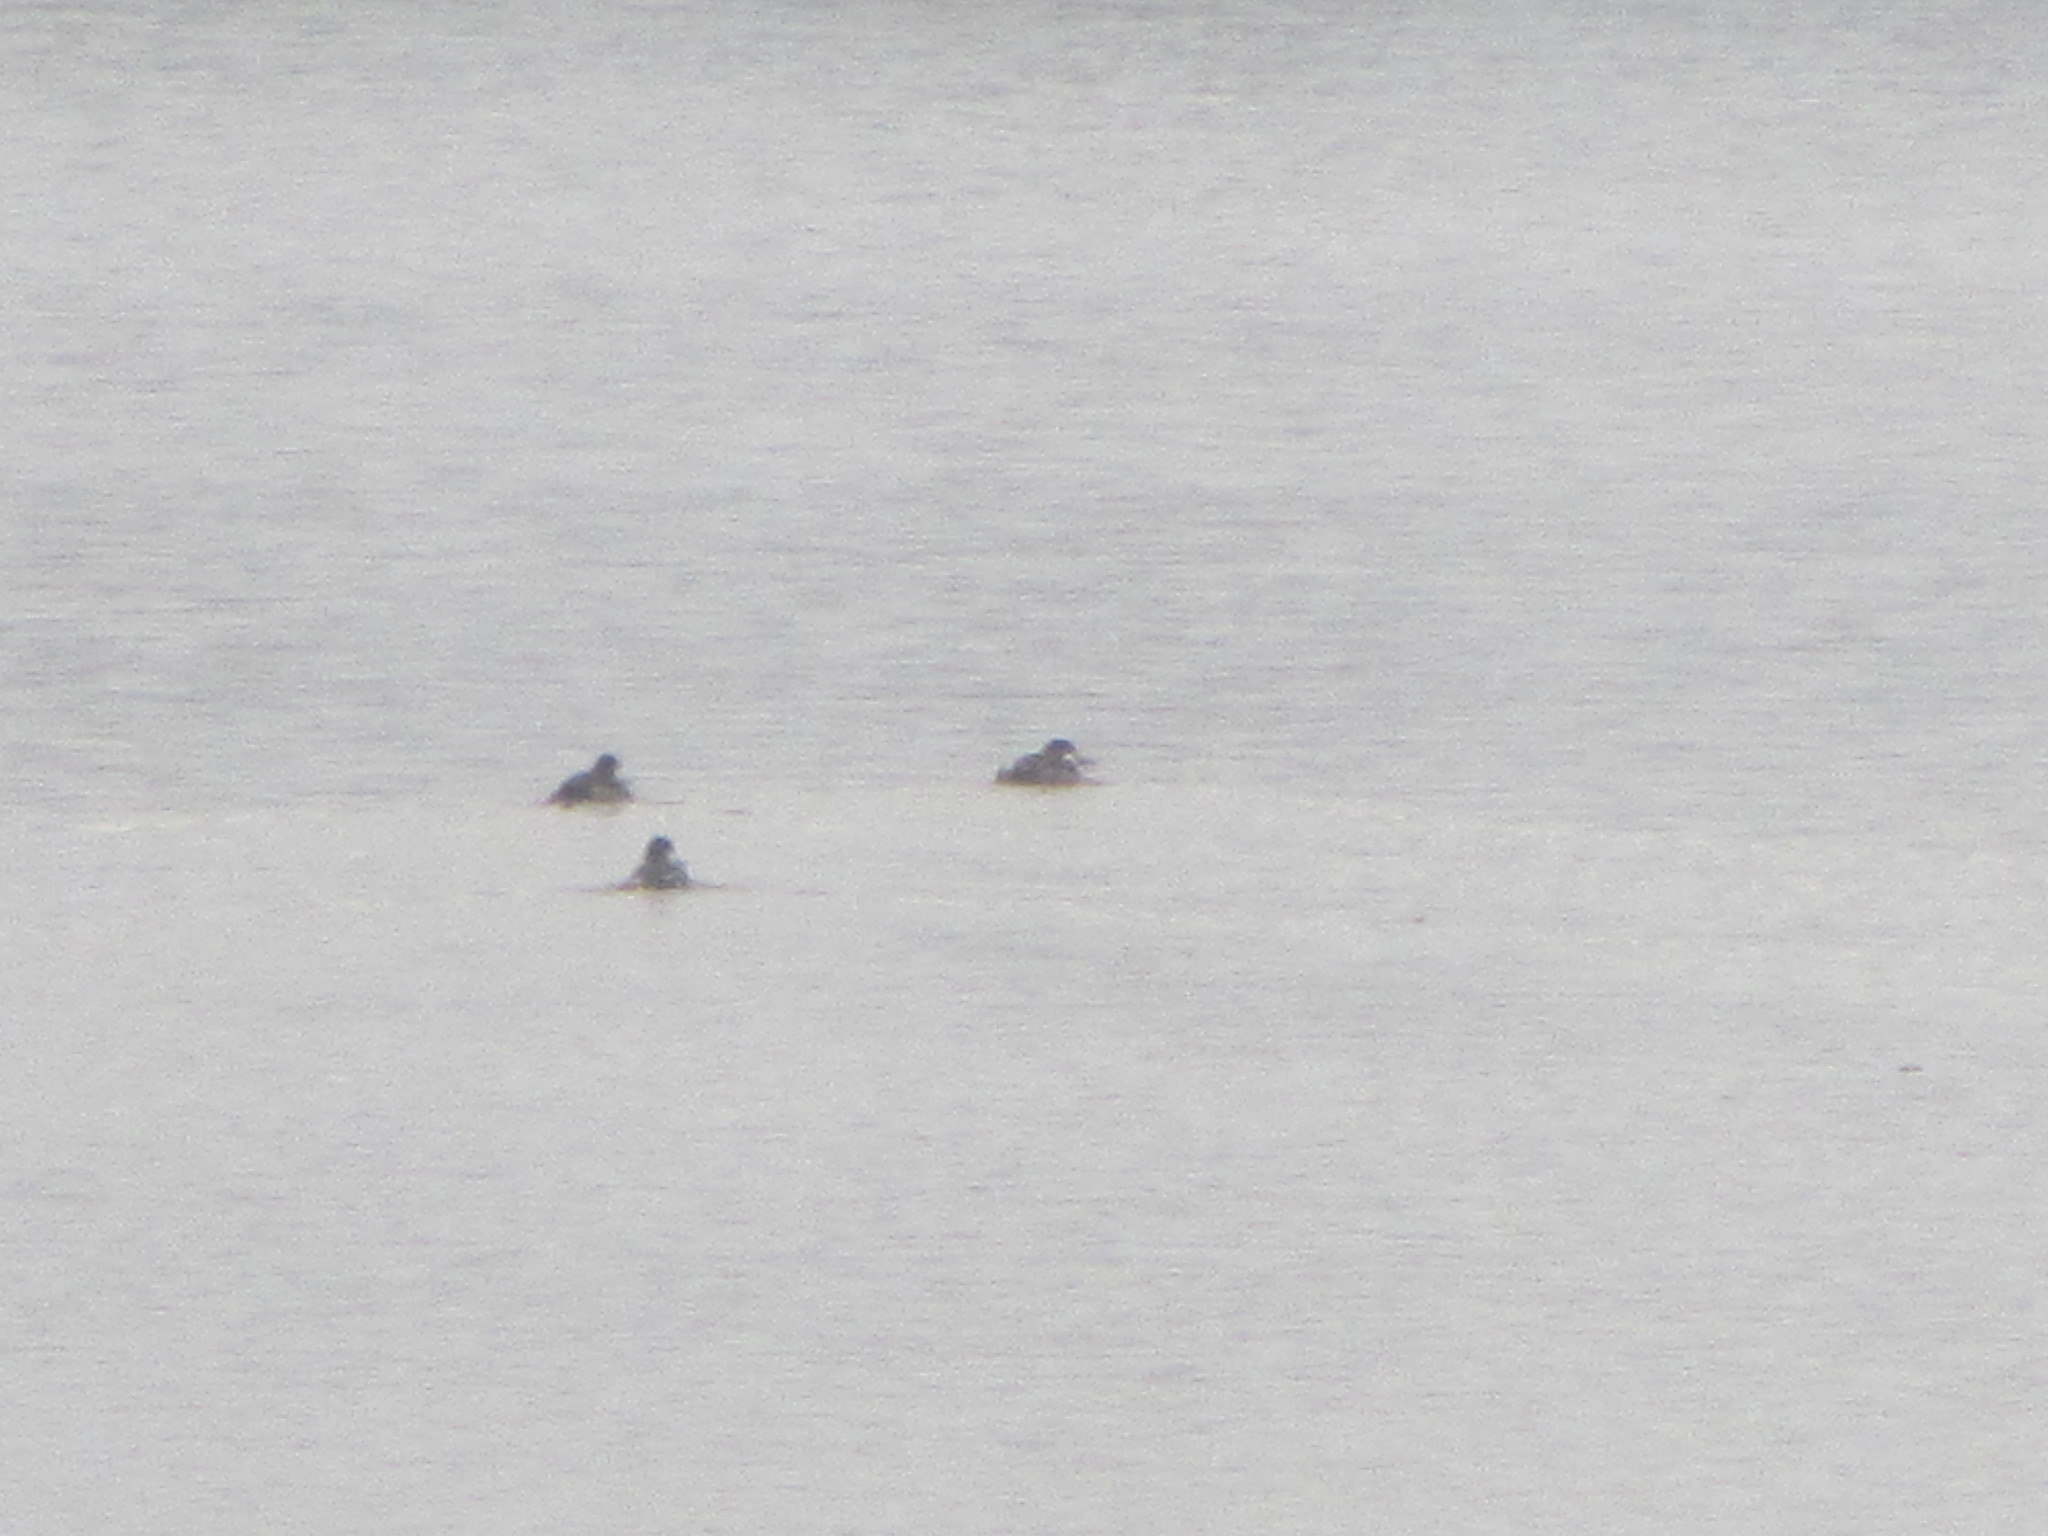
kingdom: Animalia
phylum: Chordata
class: Aves
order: Anseriformes
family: Anatidae
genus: Oxyura
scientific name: Oxyura jamaicensis
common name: Ruddy duck
